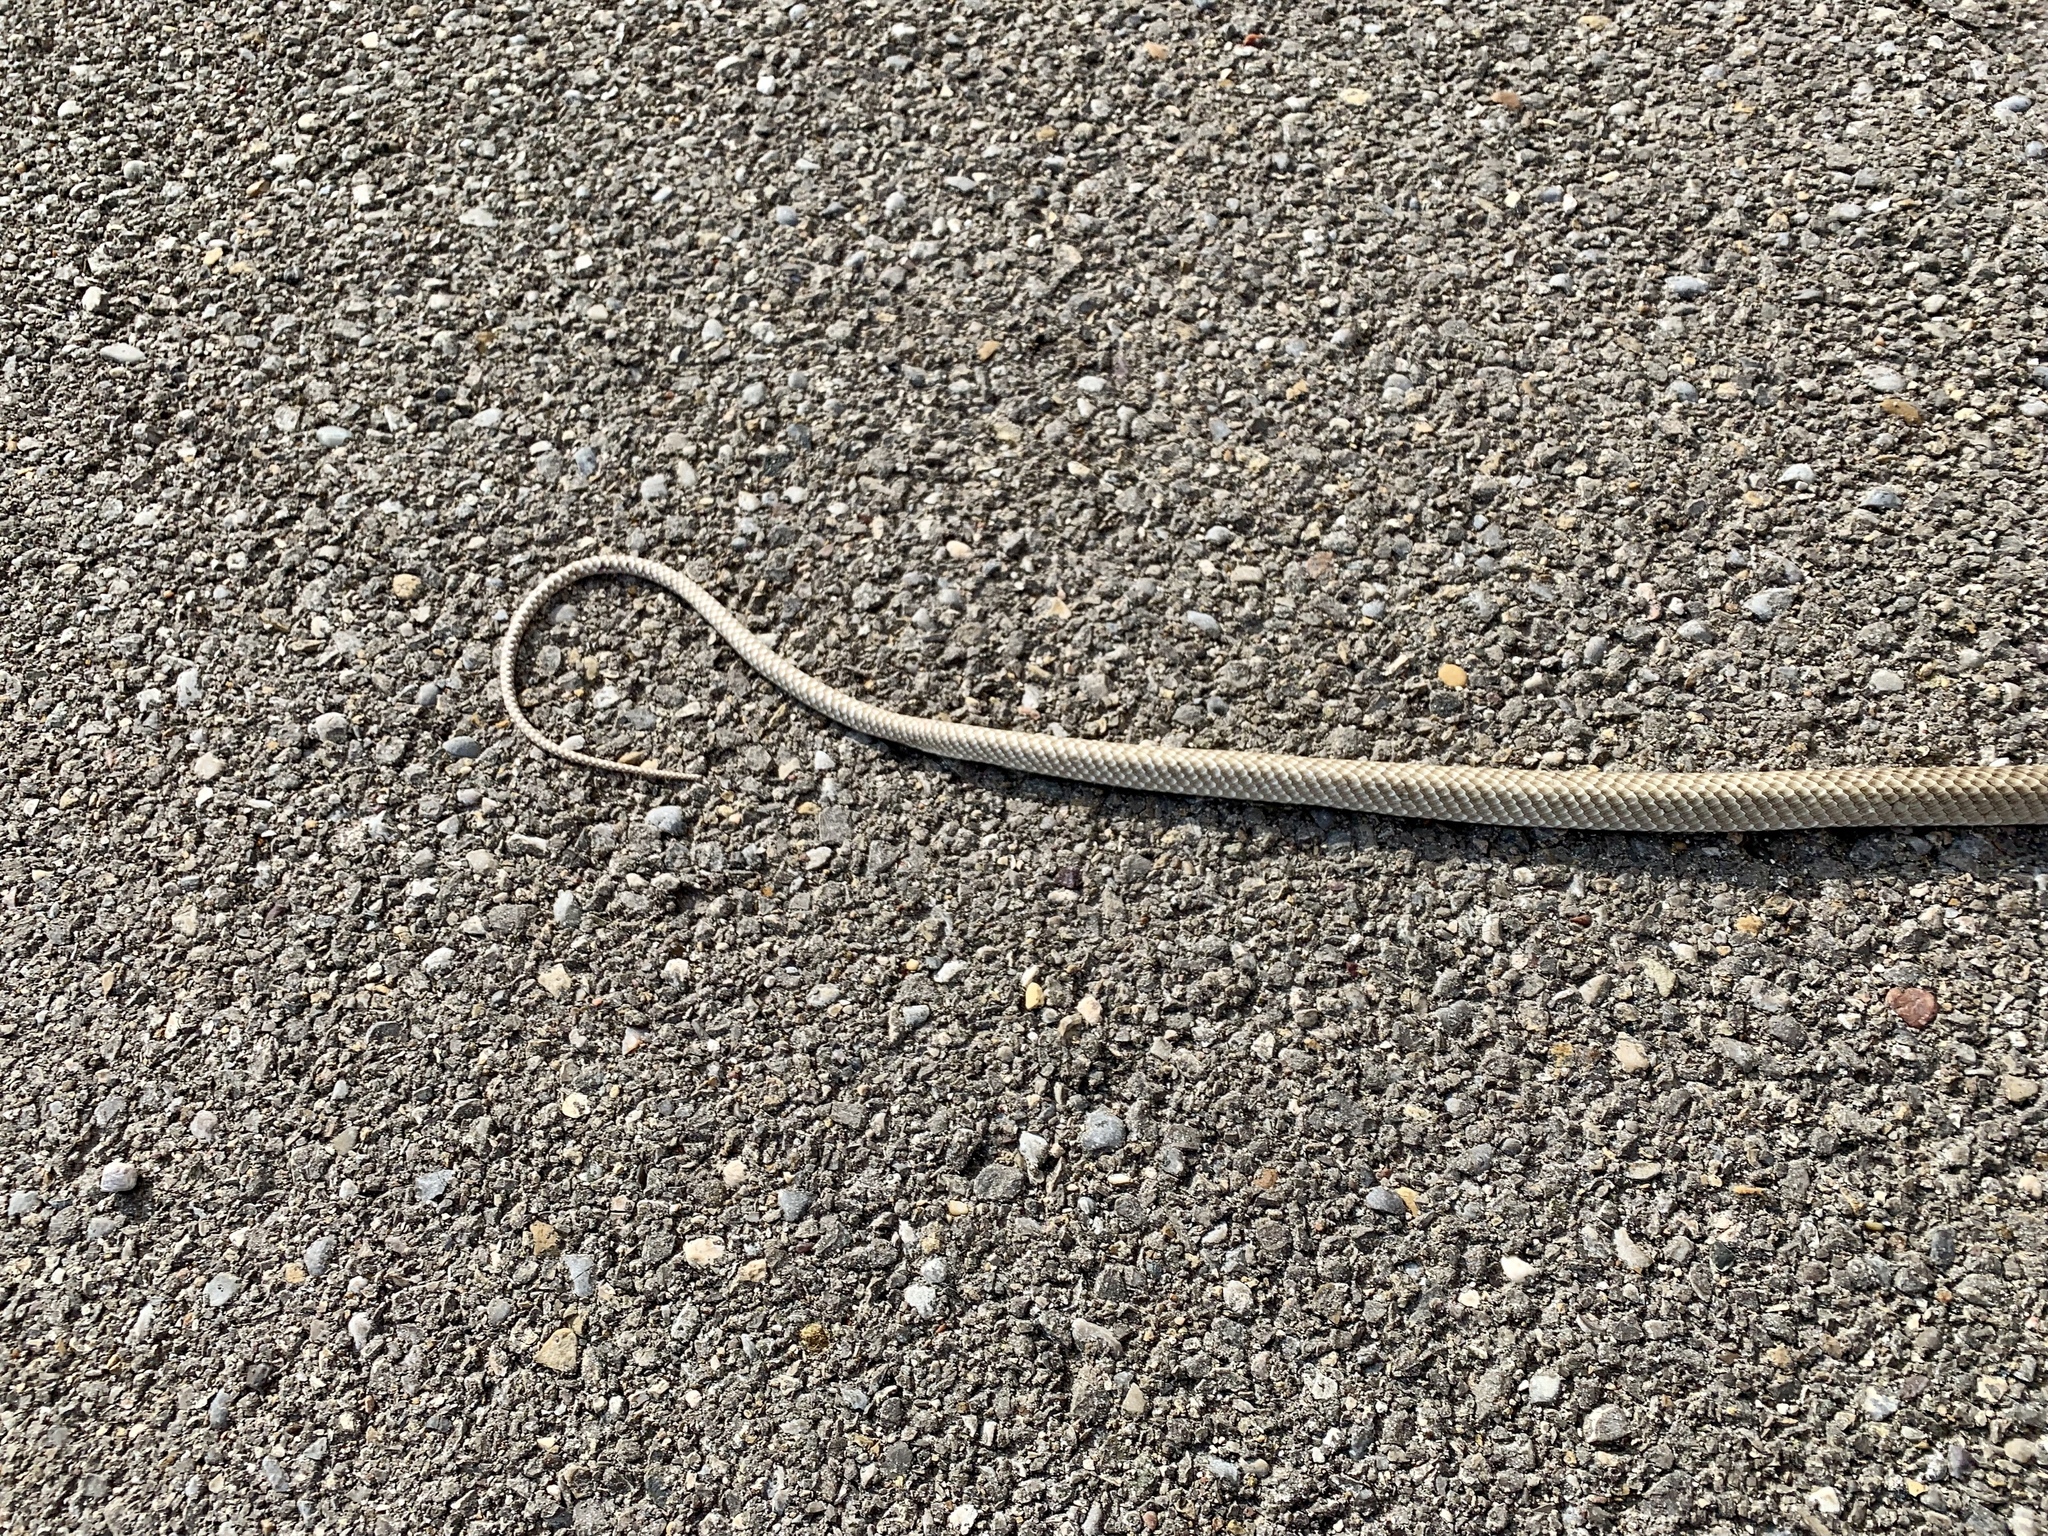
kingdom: Animalia
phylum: Chordata
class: Squamata
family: Colubridae
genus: Masticophis
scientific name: Masticophis flagellum
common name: Coachwhip
